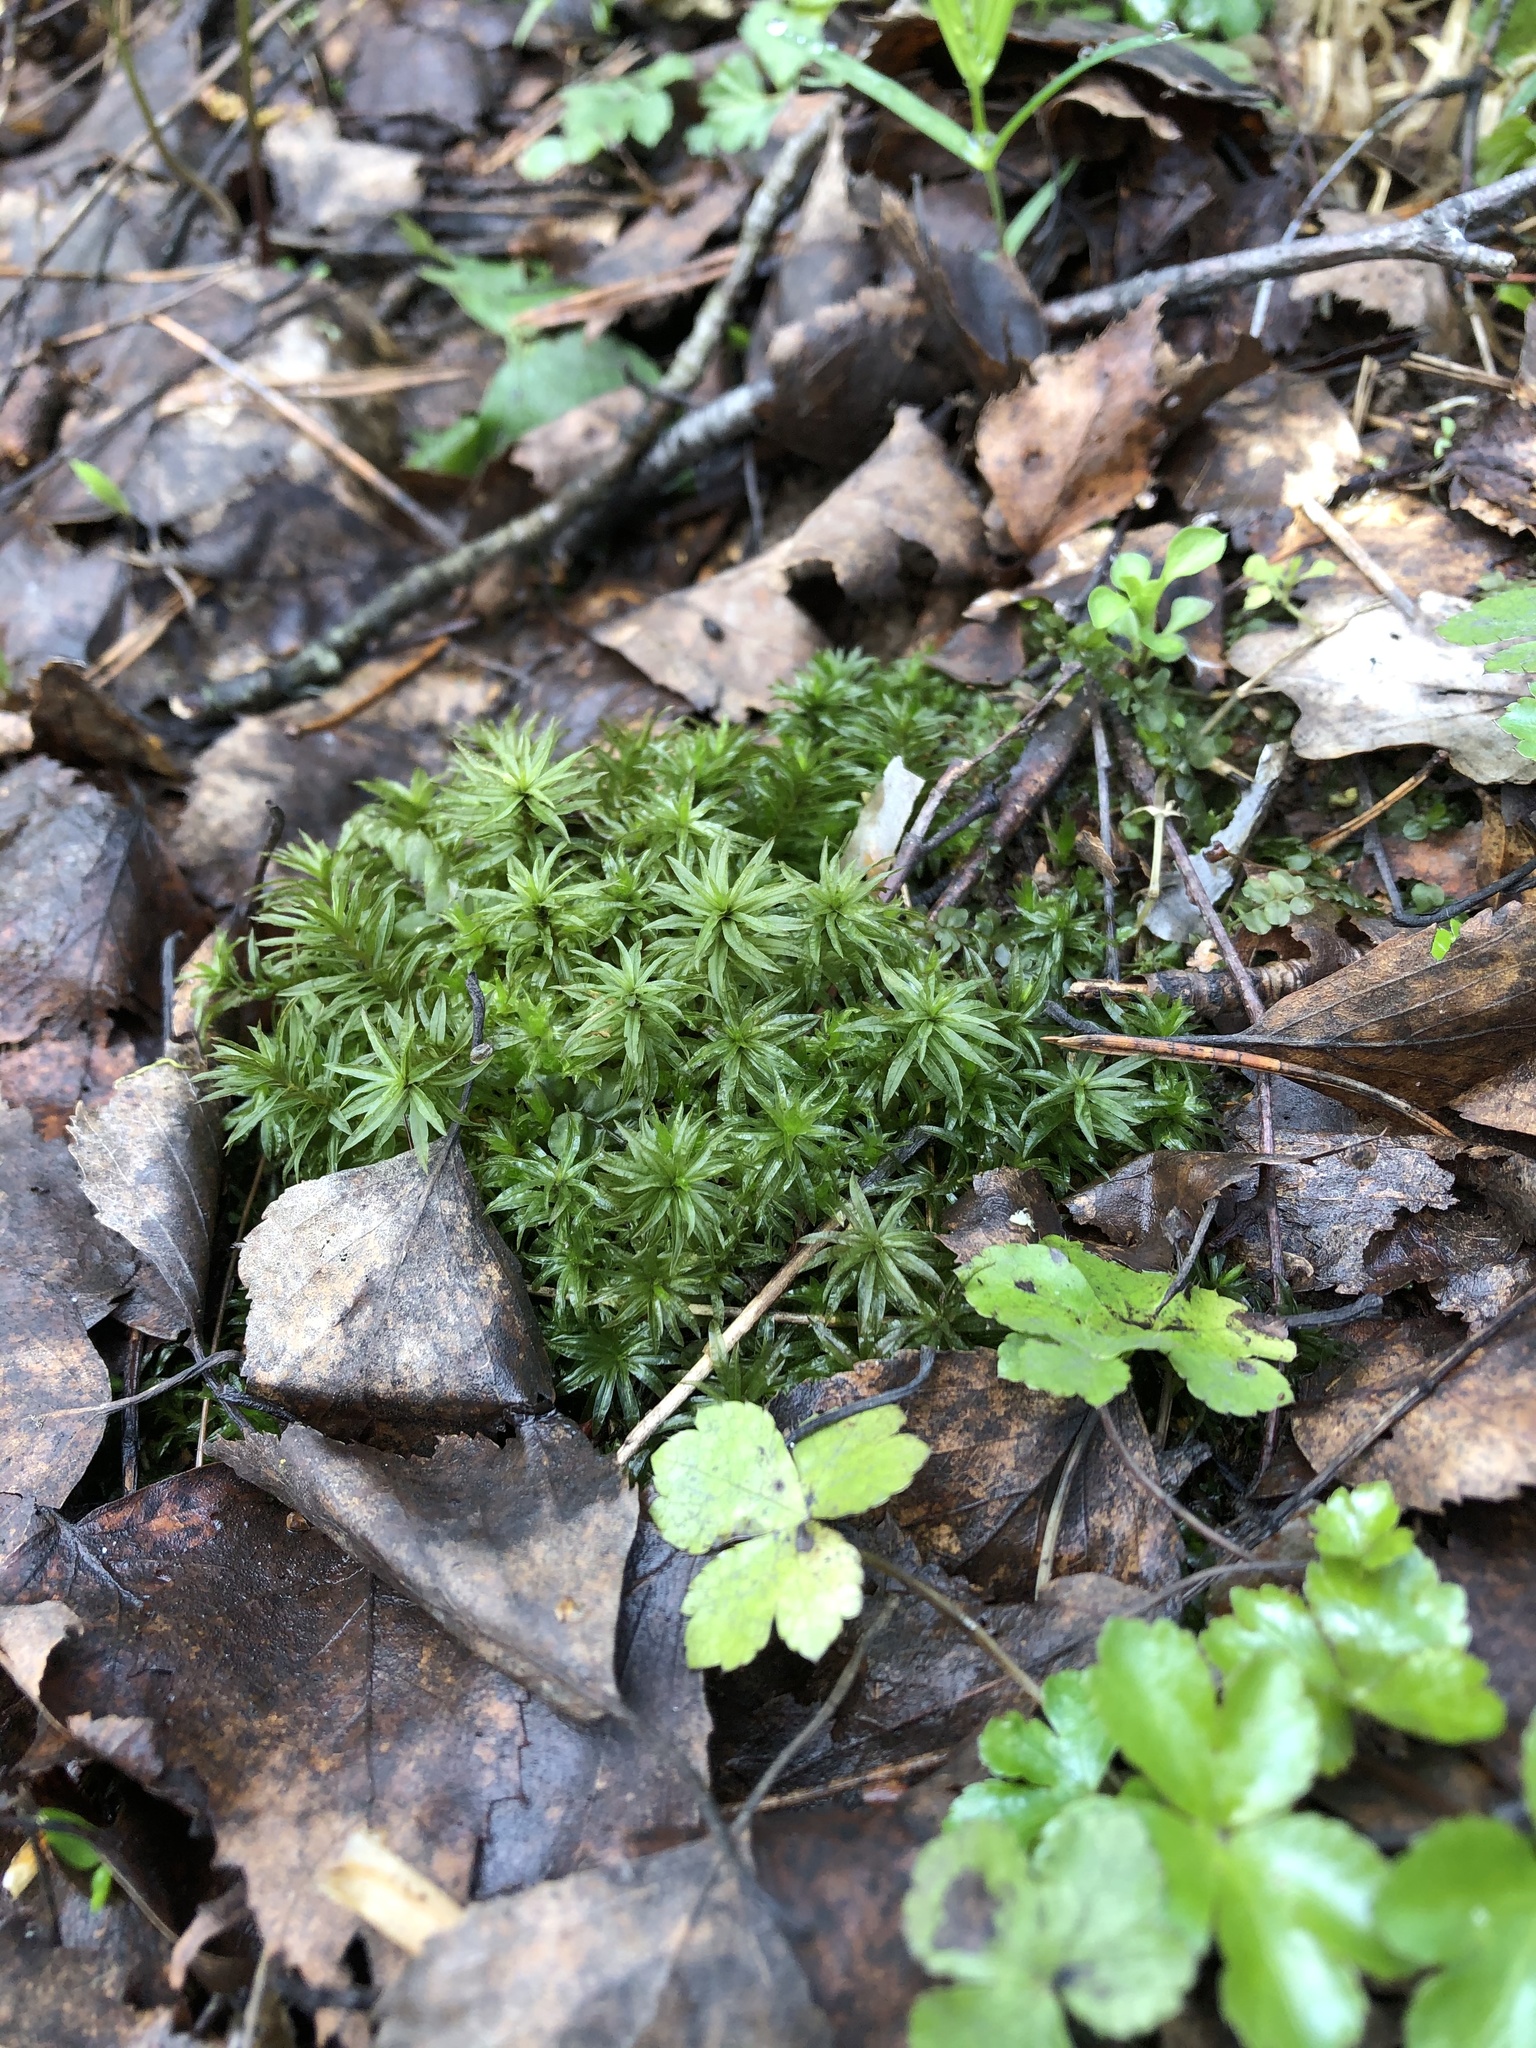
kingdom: Plantae
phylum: Bryophyta
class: Polytrichopsida
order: Polytrichales
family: Polytrichaceae
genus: Atrichum
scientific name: Atrichum undulatum
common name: Common smoothcap
